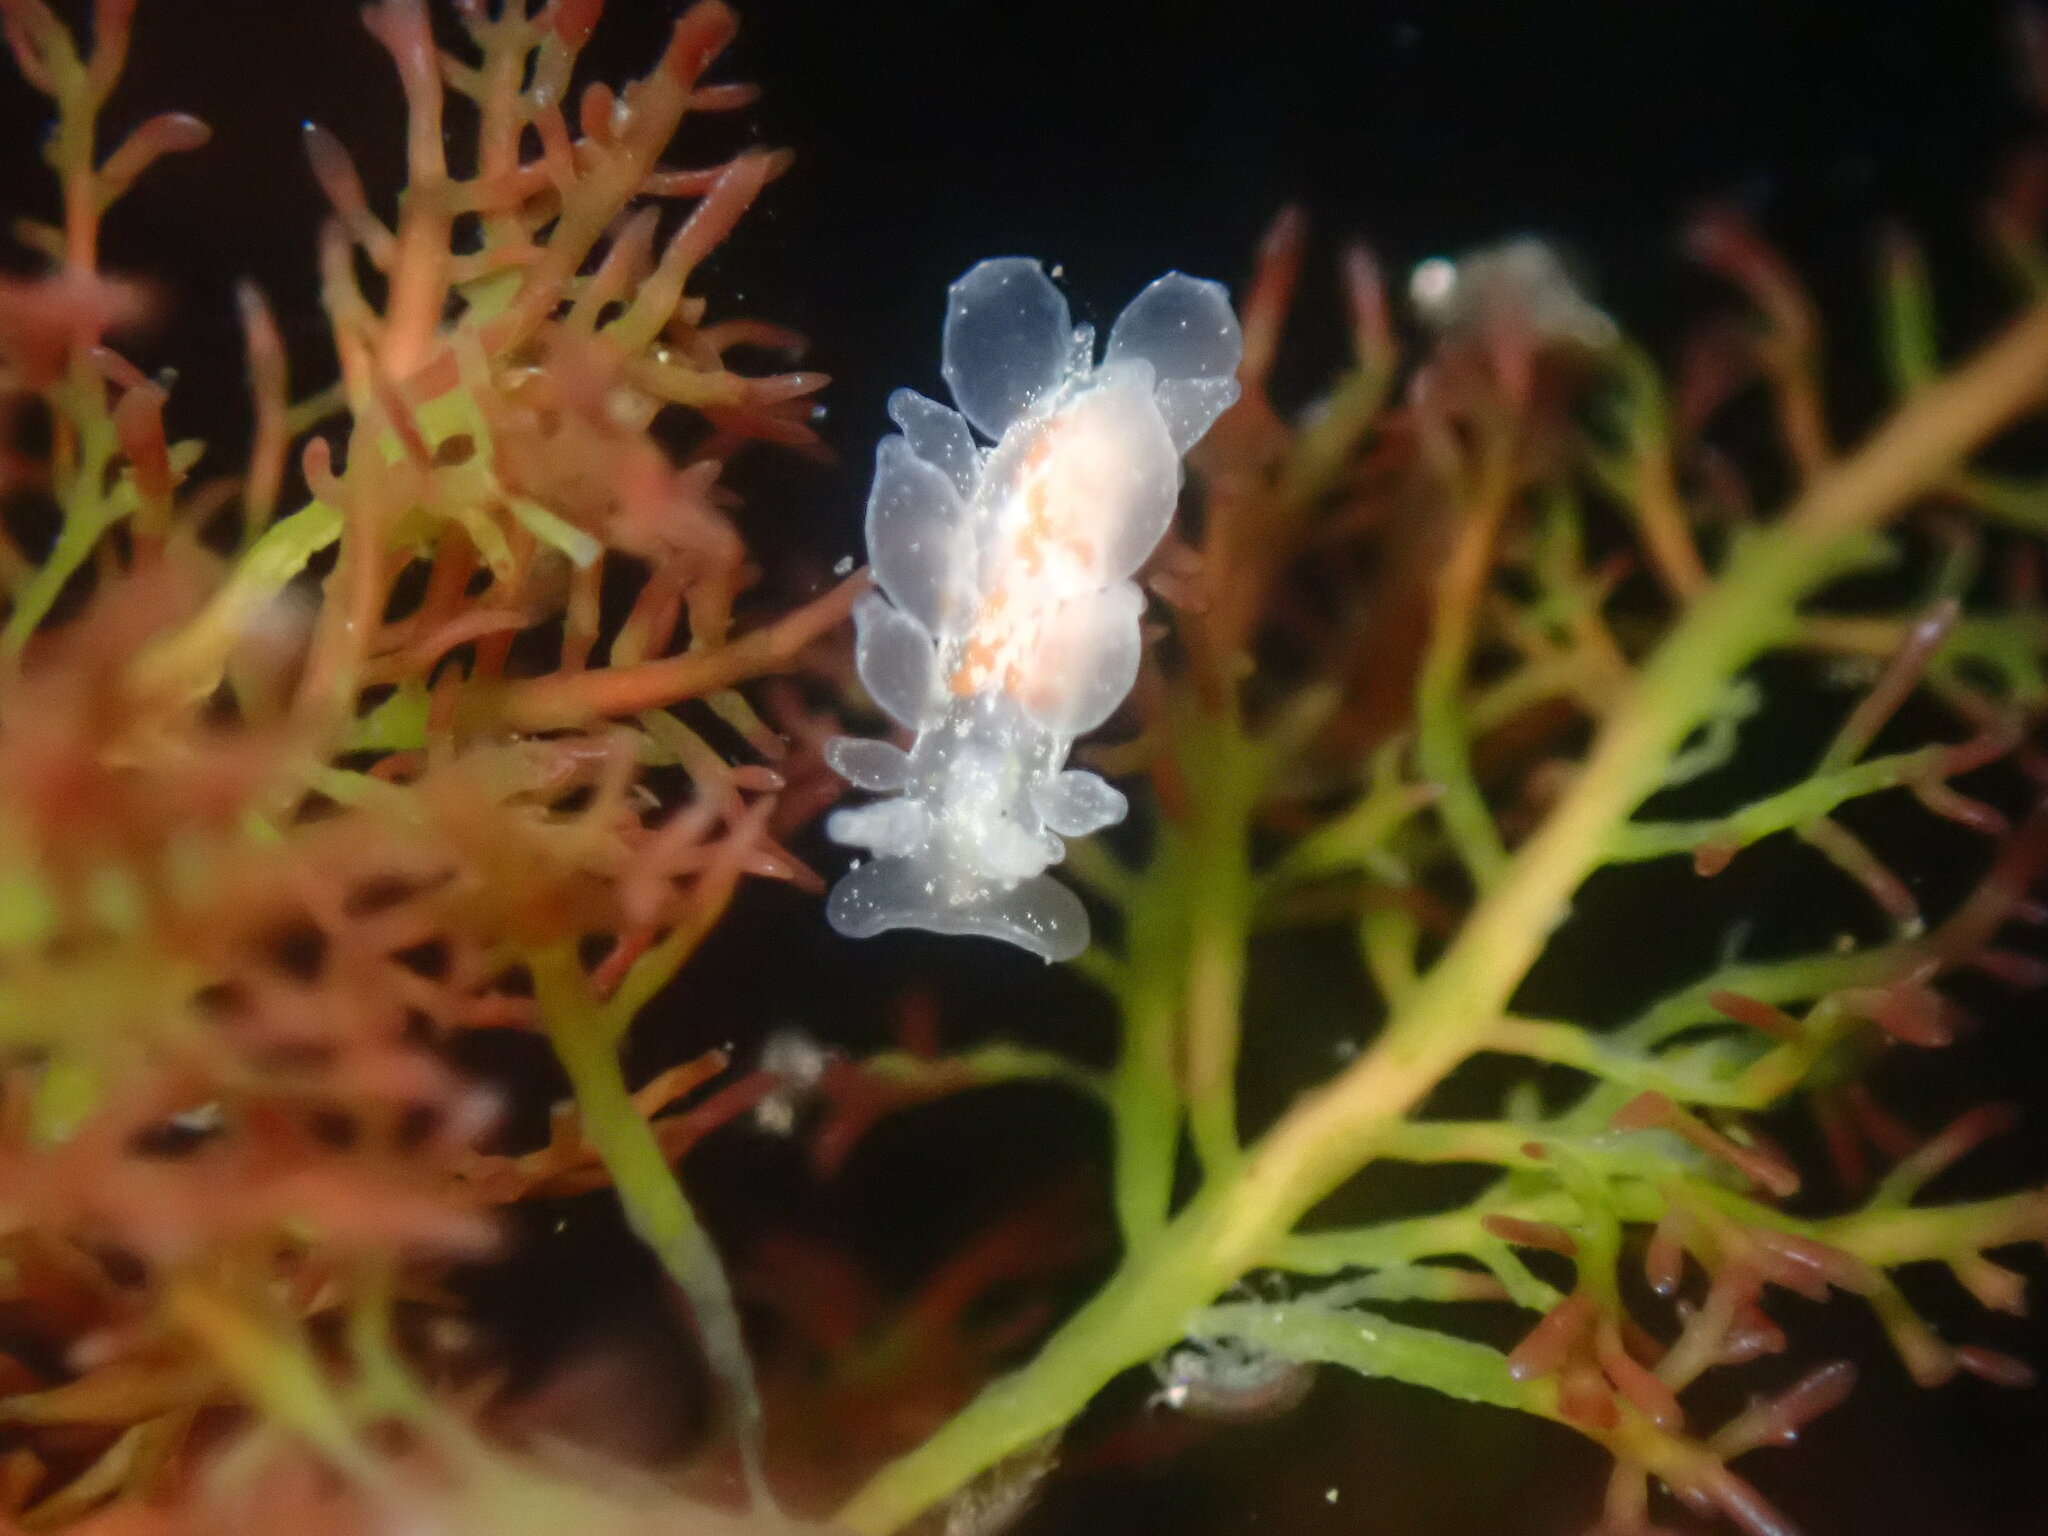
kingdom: Animalia
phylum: Mollusca
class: Gastropoda
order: Nudibranchia
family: Dironidae
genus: Dirona
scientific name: Dirona picta
